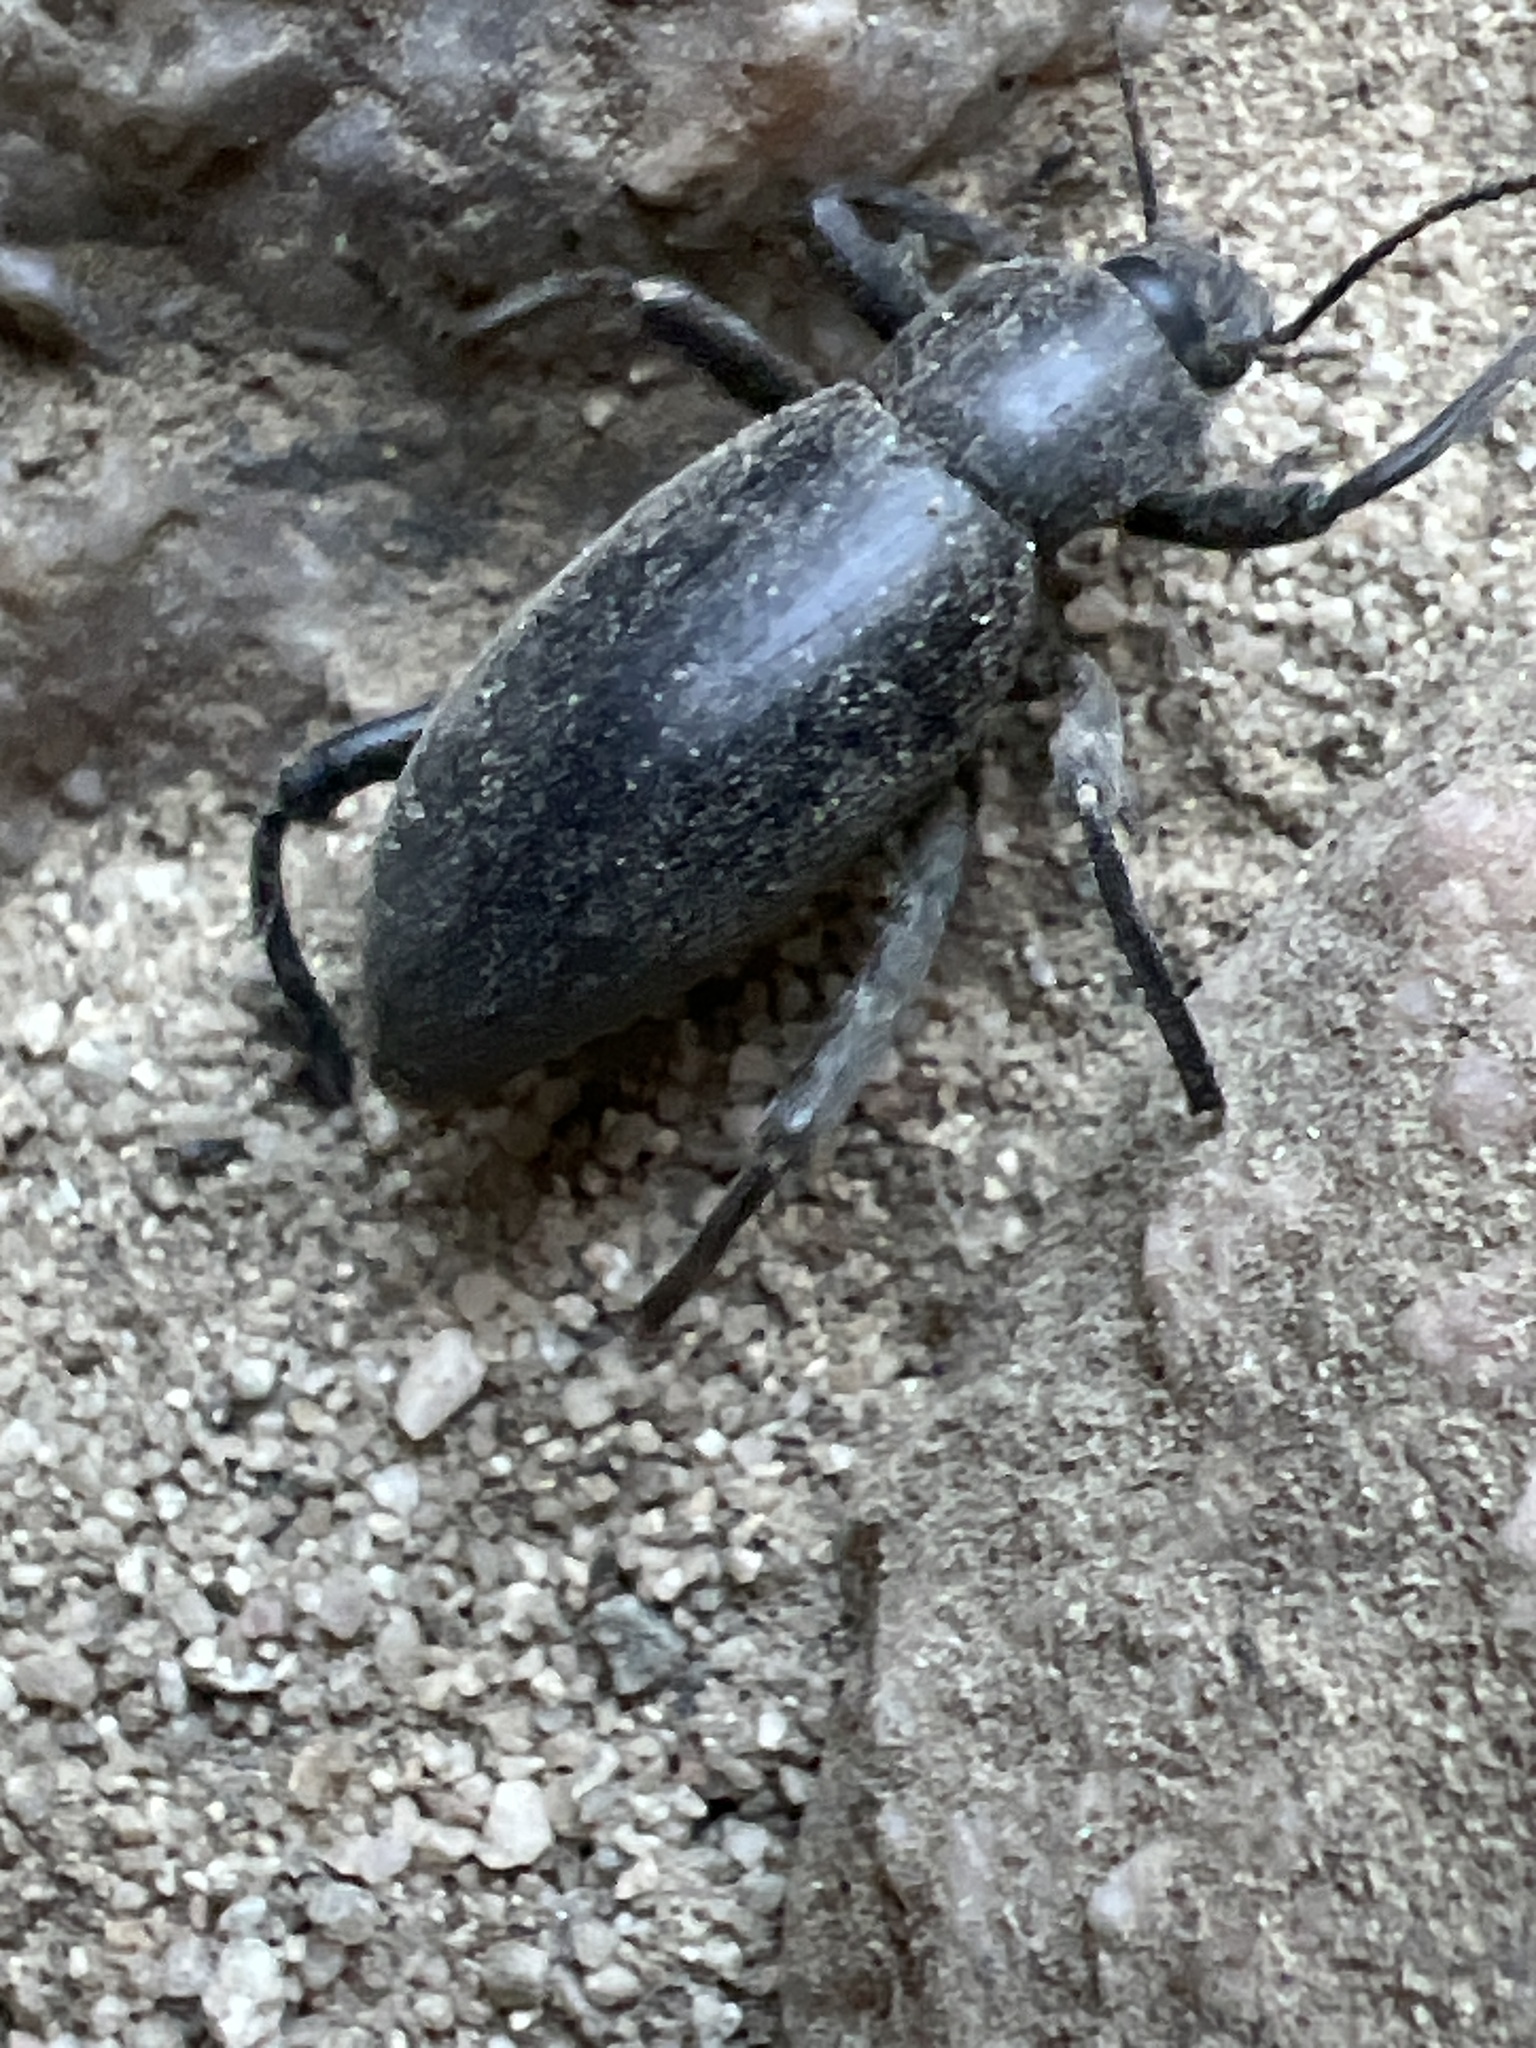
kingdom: Animalia
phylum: Arthropoda
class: Insecta
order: Coleoptera
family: Tenebrionidae
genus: Eleodes
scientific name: Eleodes armata
